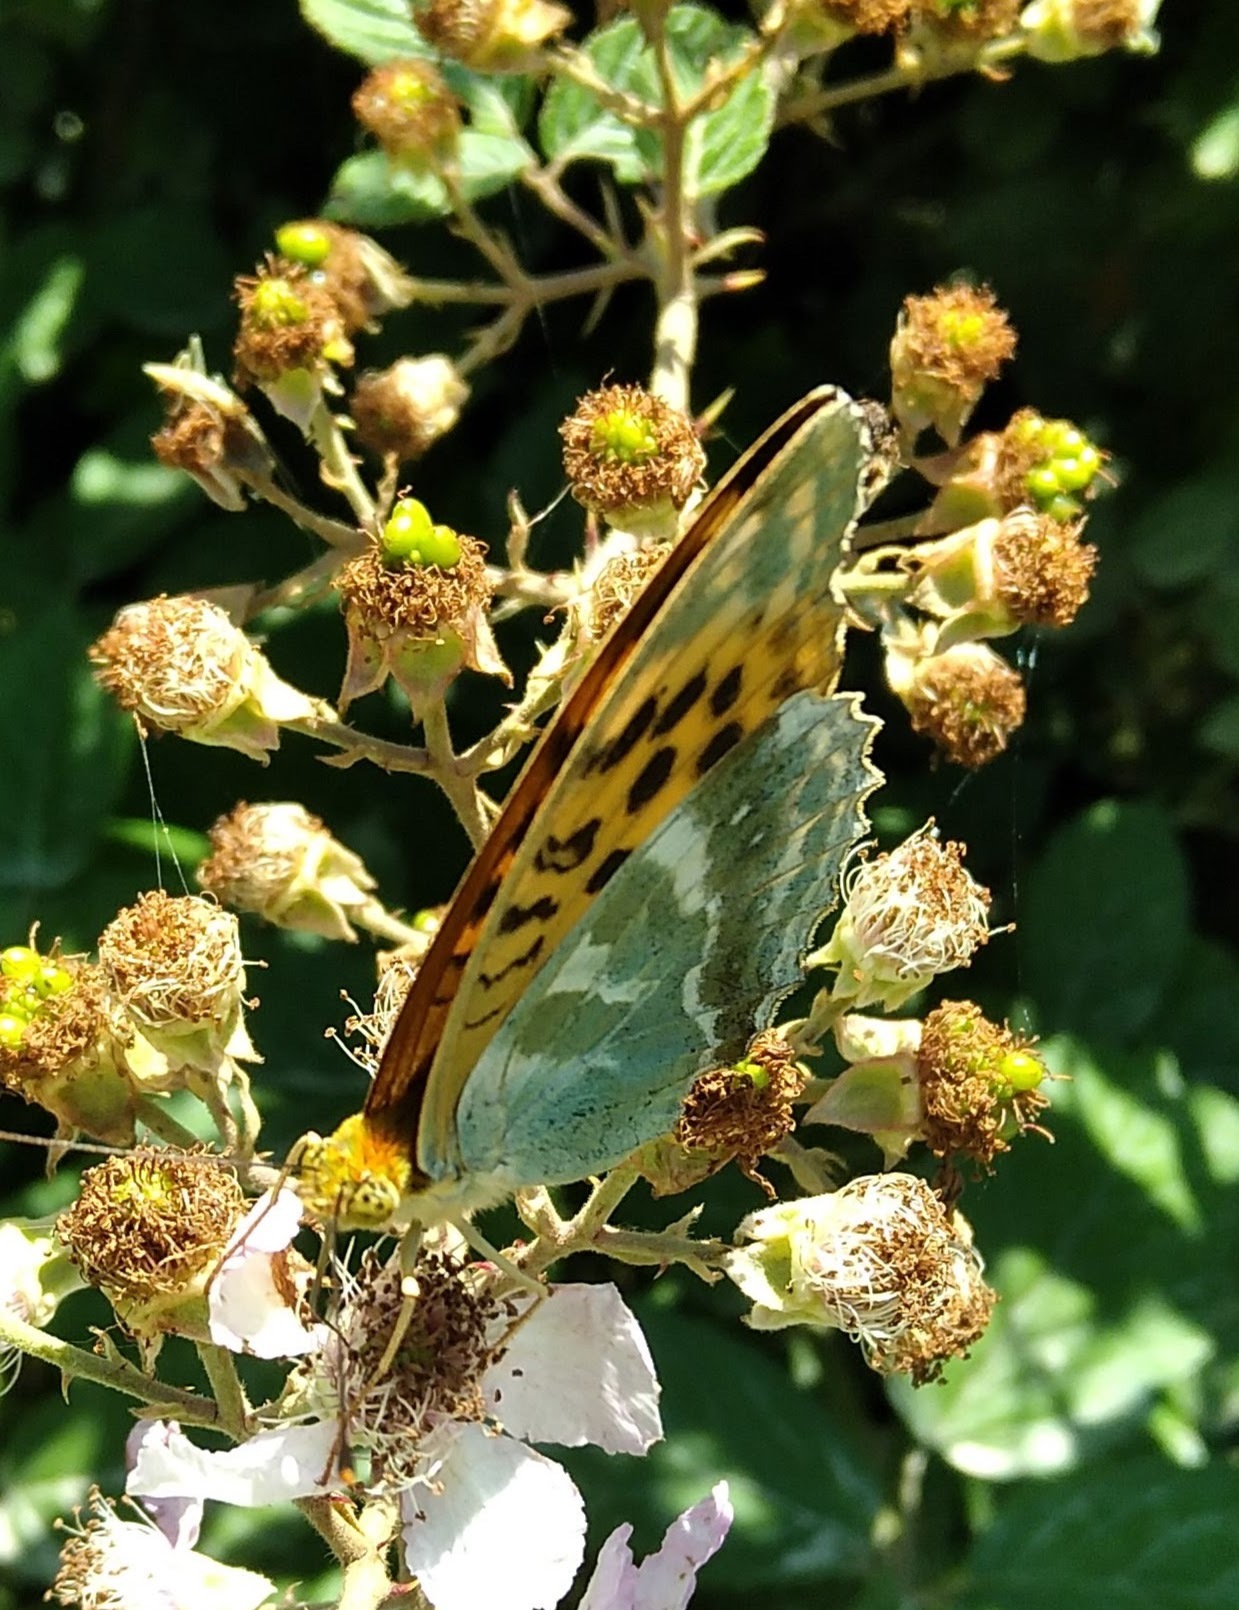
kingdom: Animalia
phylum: Arthropoda
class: Insecta
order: Lepidoptera
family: Nymphalidae
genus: Argynnis
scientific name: Argynnis paphia
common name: Silver-washed fritillary
